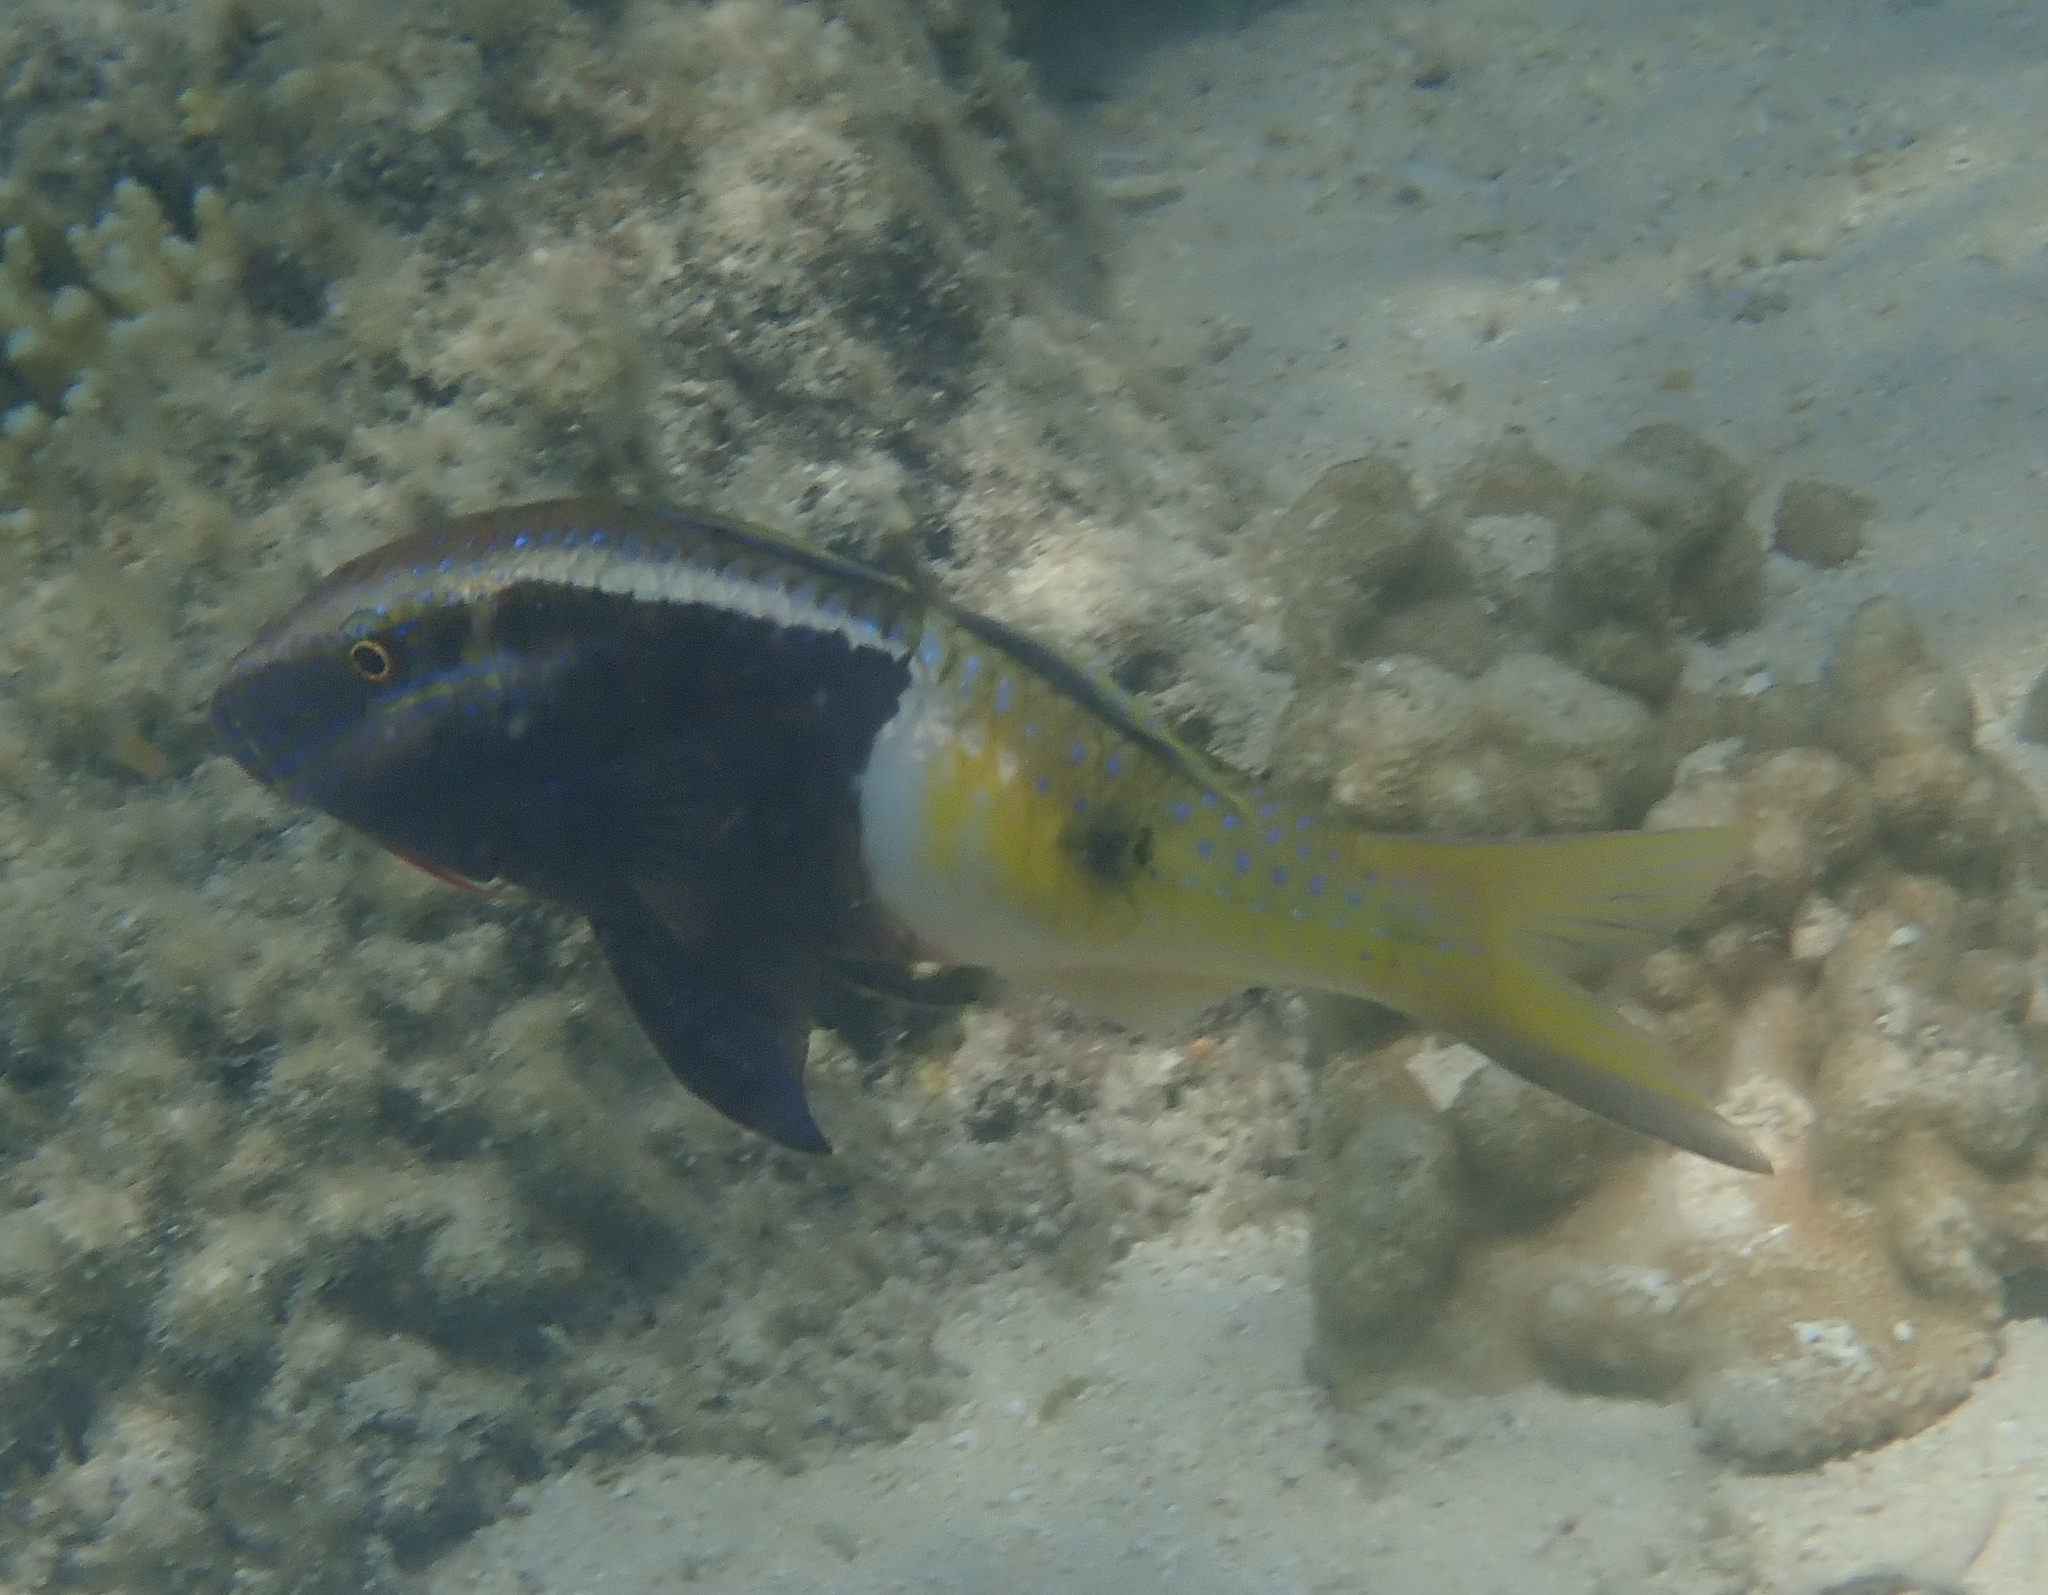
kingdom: Animalia
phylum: Chordata
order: Perciformes
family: Mullidae
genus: Parupeneus
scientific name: Parupeneus barberinoides
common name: Half-and-half goatfish
